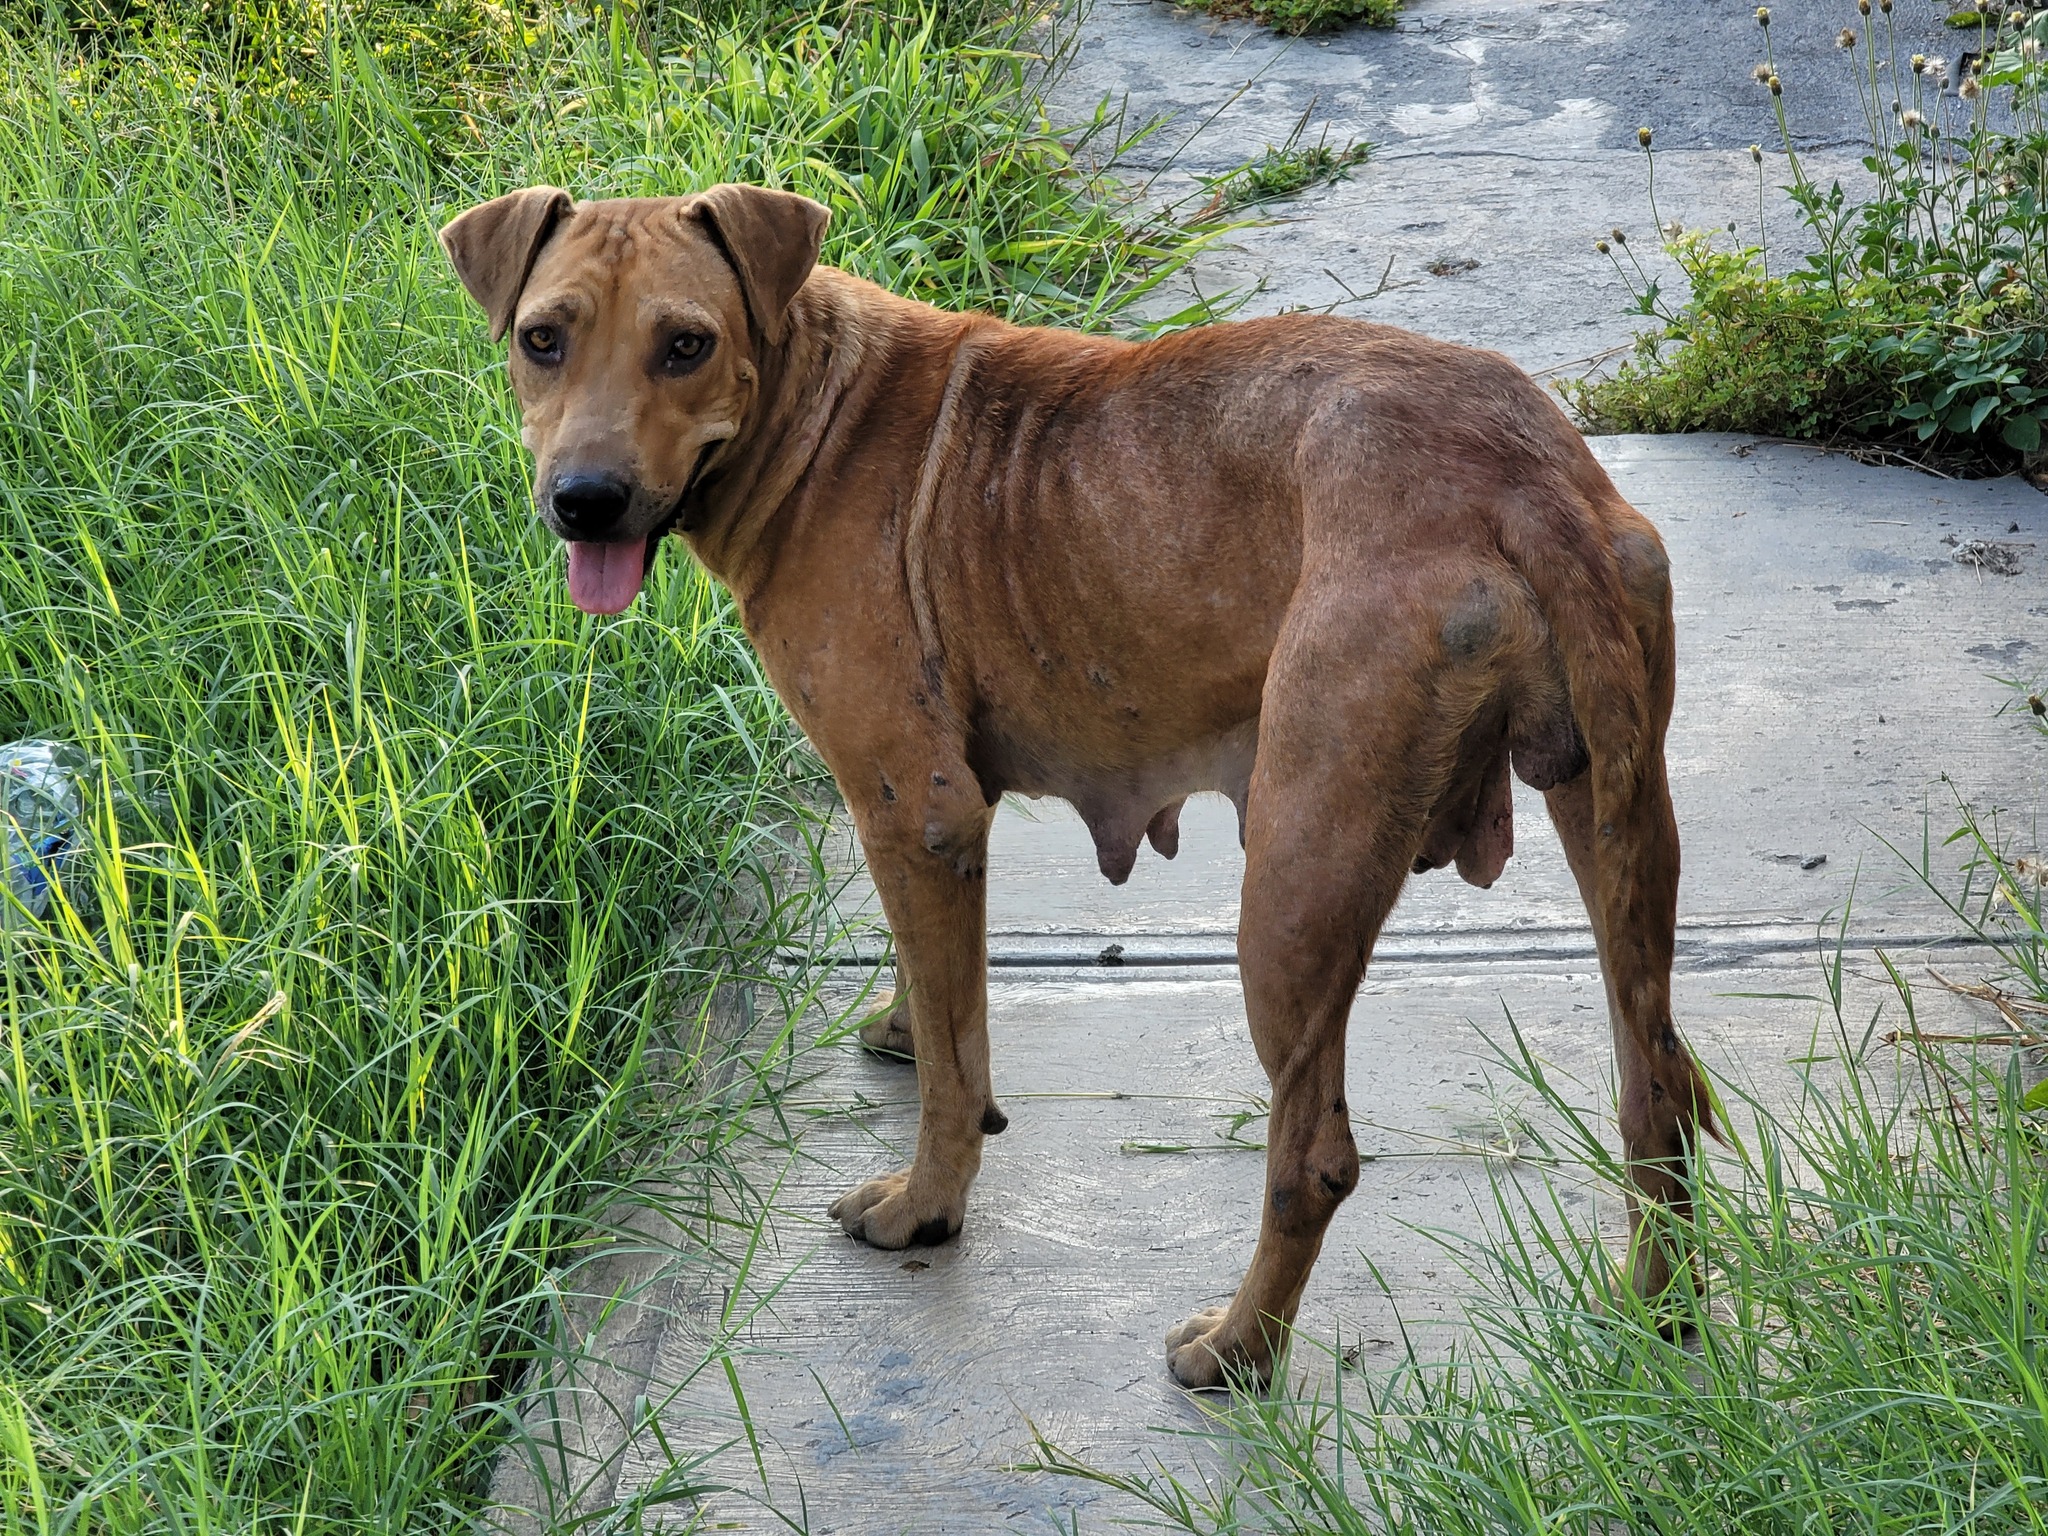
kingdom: Animalia
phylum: Chordata
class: Mammalia
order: Carnivora
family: Canidae
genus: Canis
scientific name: Canis lupus
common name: Gray wolf
